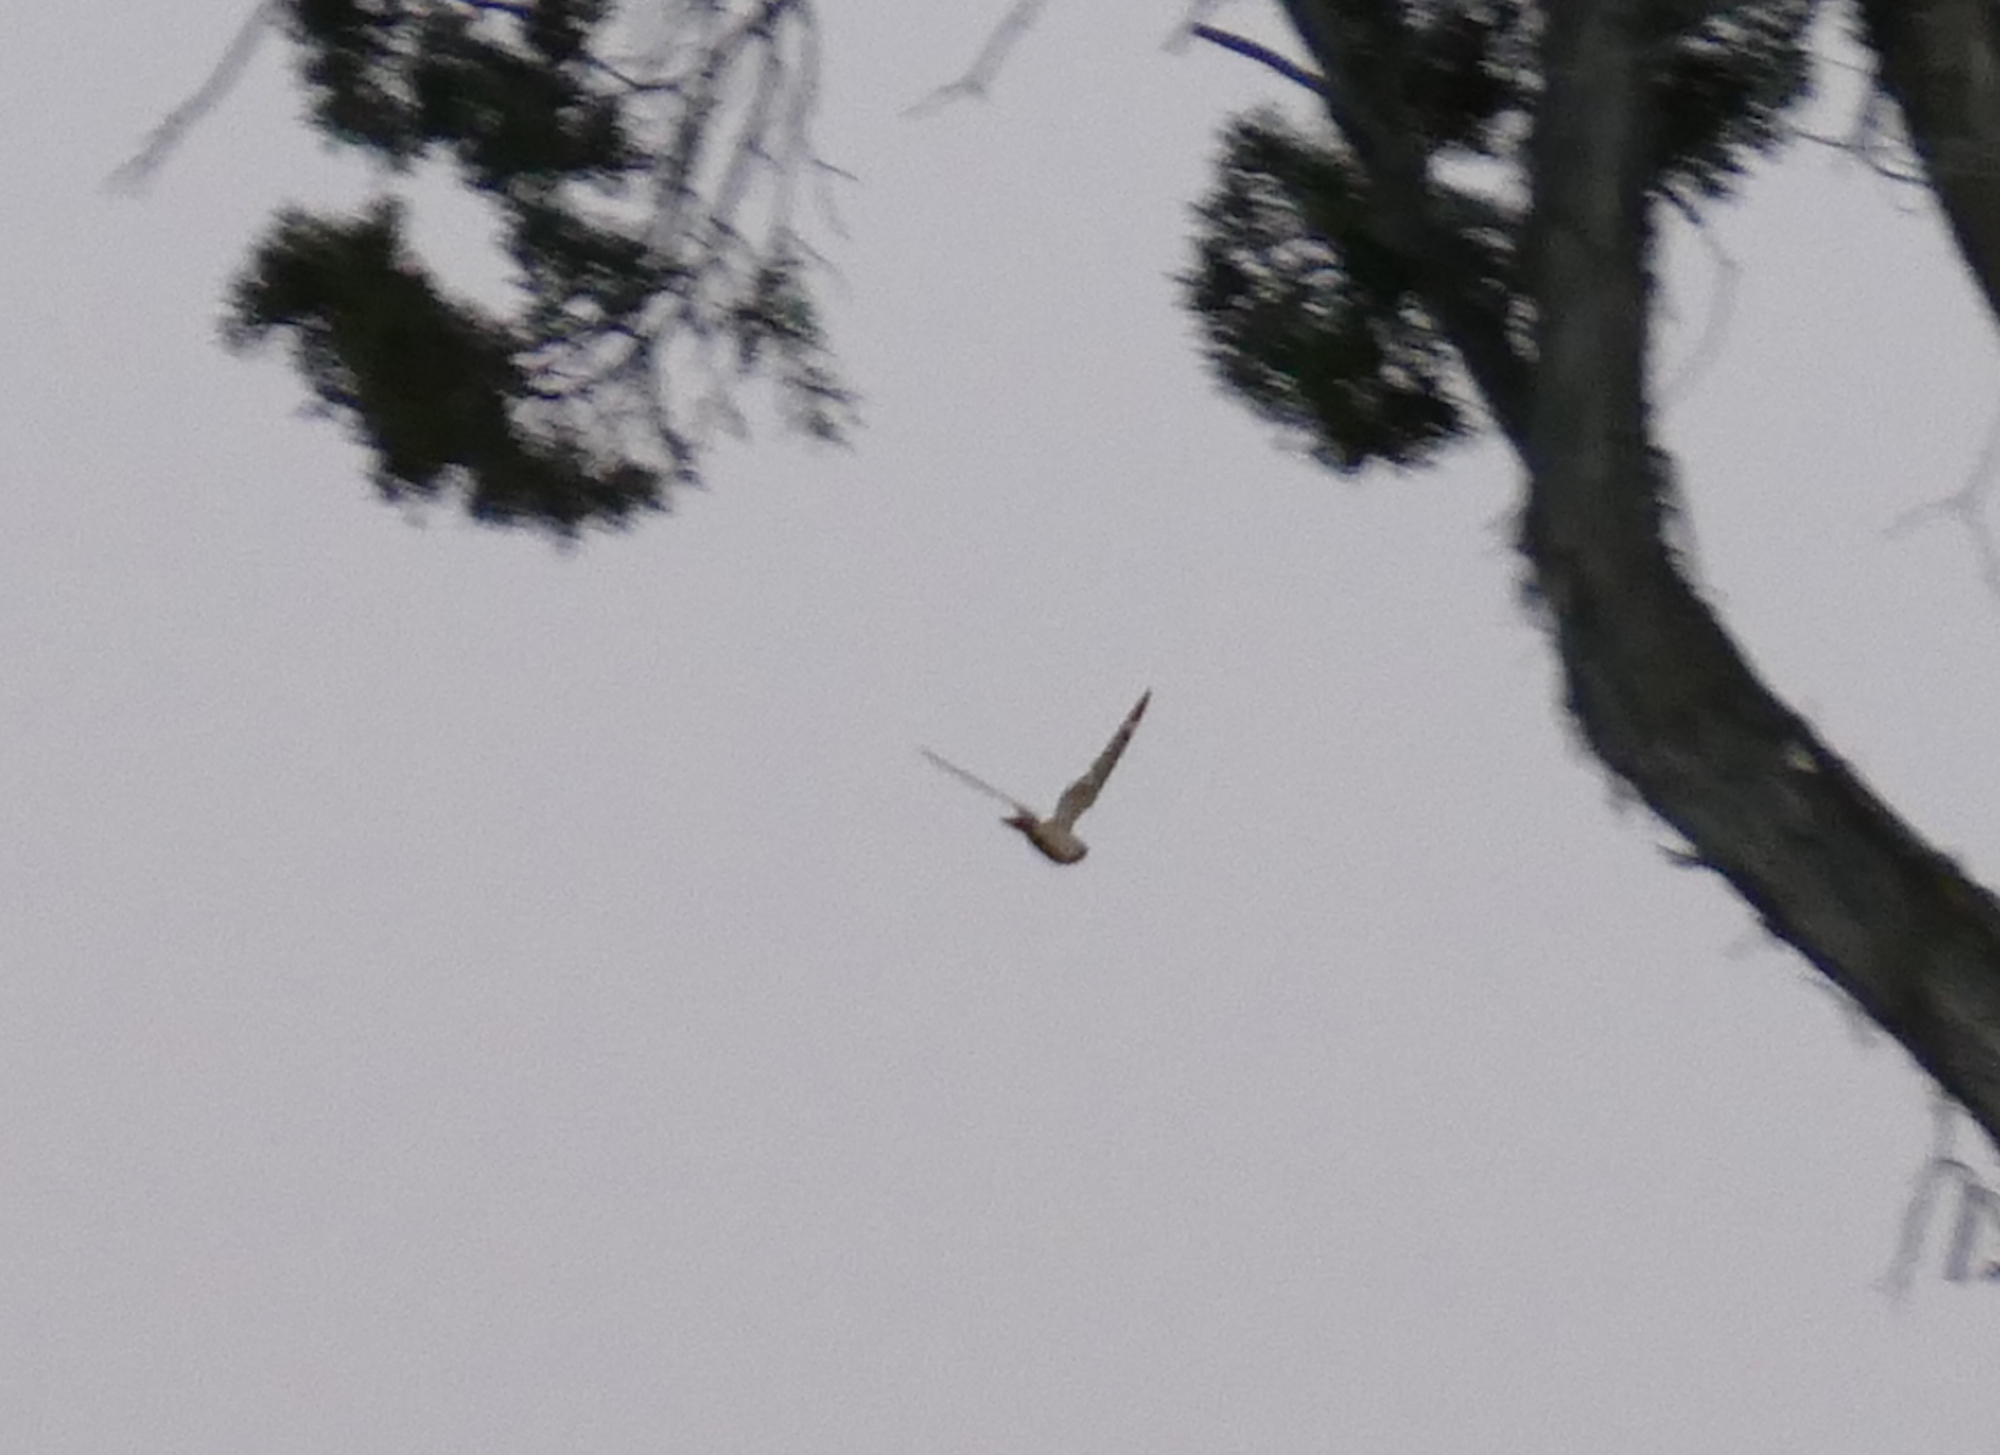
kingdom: Animalia
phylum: Chordata
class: Aves
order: Caprimulgiformes
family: Caprimulgidae
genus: Chordeiles
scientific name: Chordeiles minor
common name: Common nighthawk
